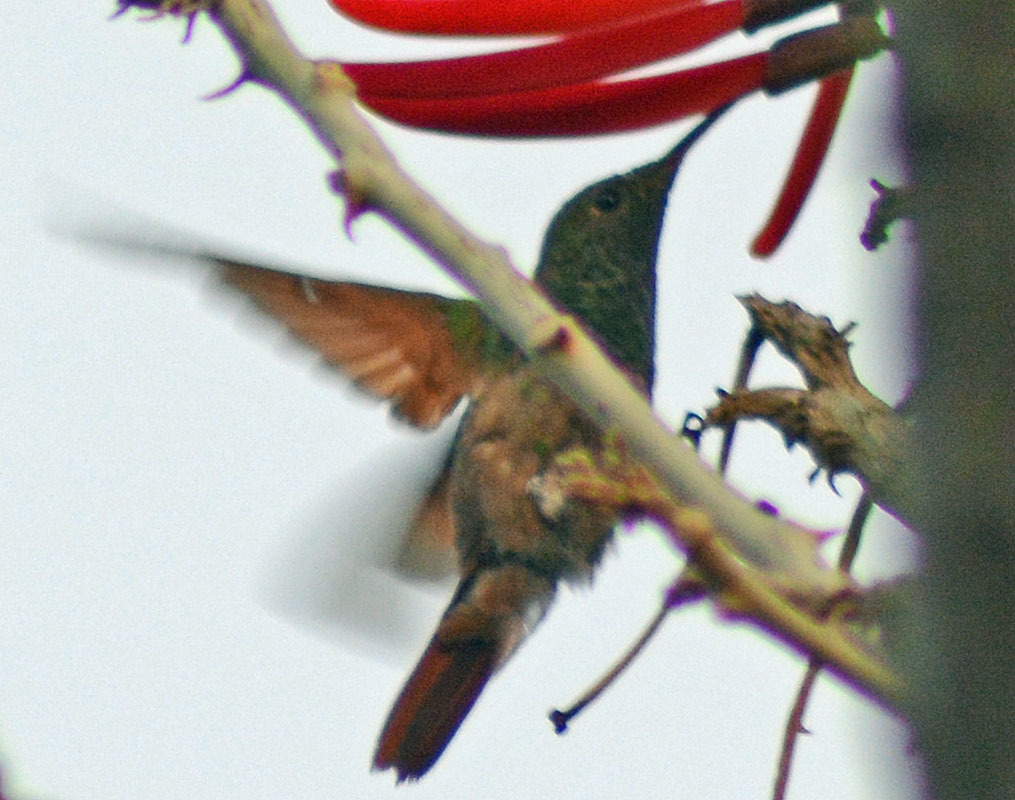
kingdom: Animalia
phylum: Chordata
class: Aves
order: Apodiformes
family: Trochilidae
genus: Saucerottia
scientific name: Saucerottia beryllina
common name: Berylline hummingbird
